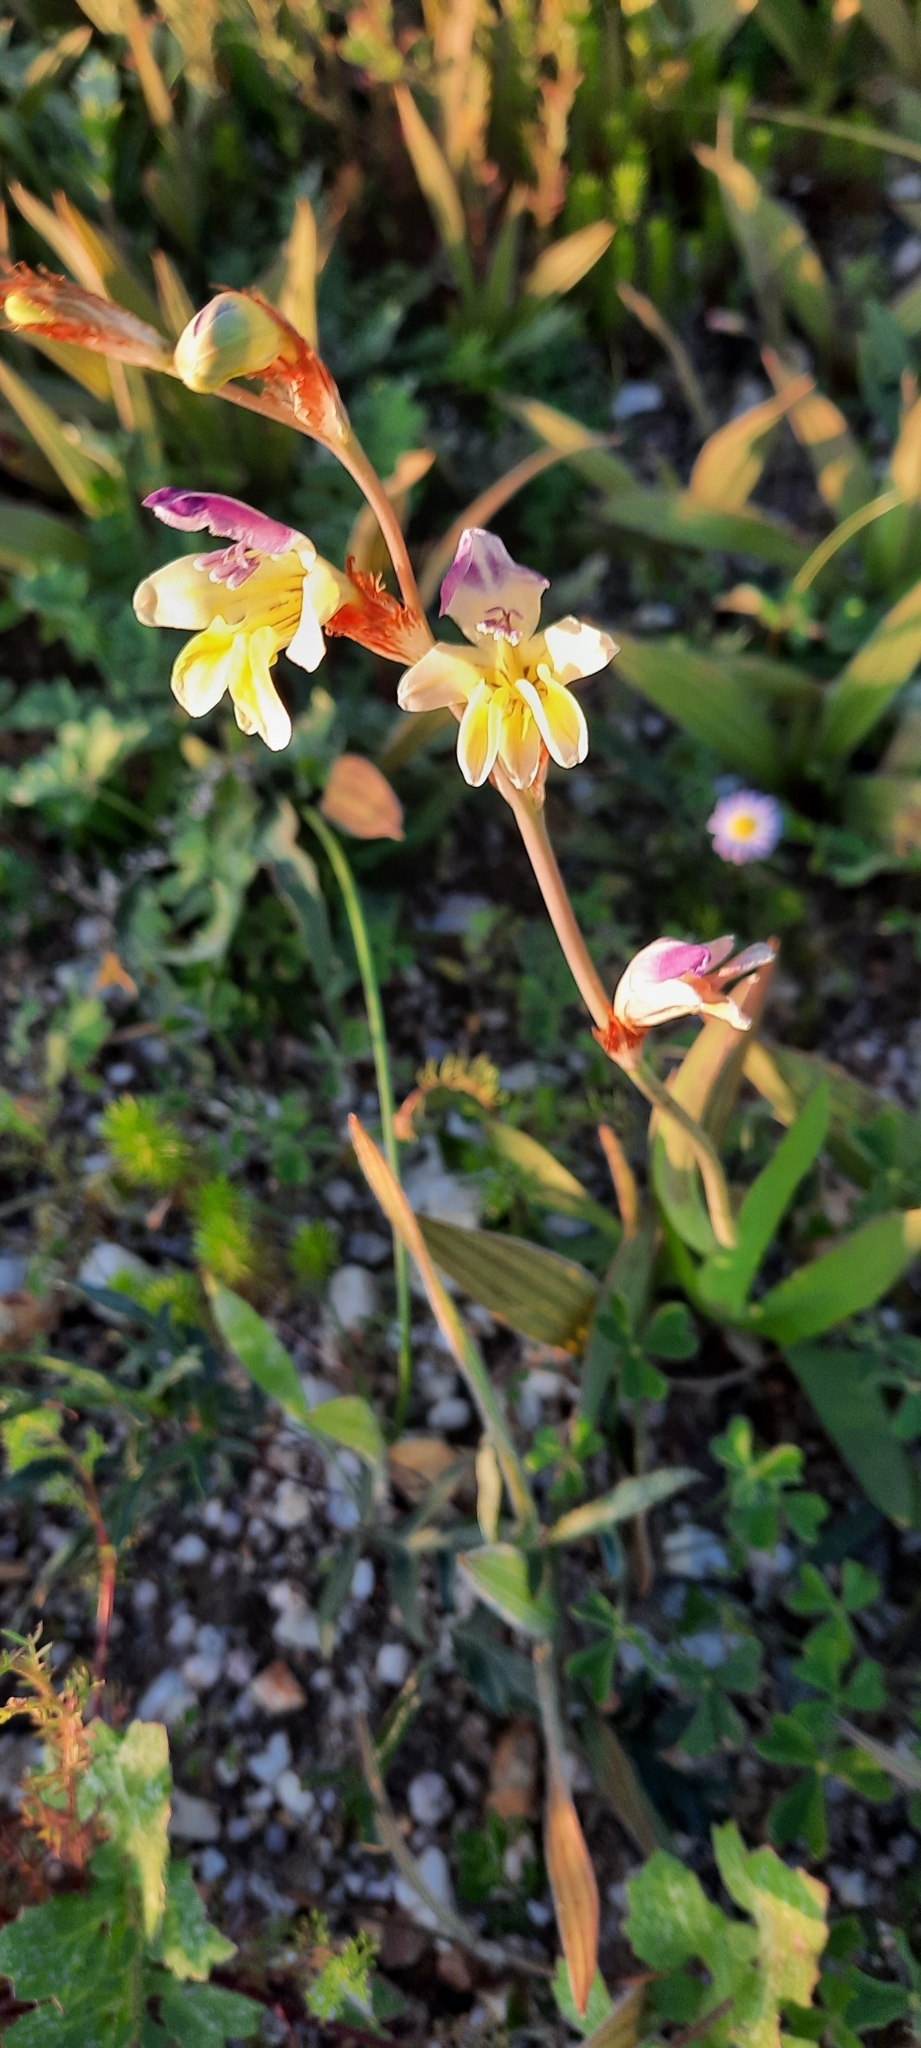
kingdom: Plantae
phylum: Tracheophyta
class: Liliopsida
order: Asparagales
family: Iridaceae
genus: Sparaxis
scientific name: Sparaxis villosa
